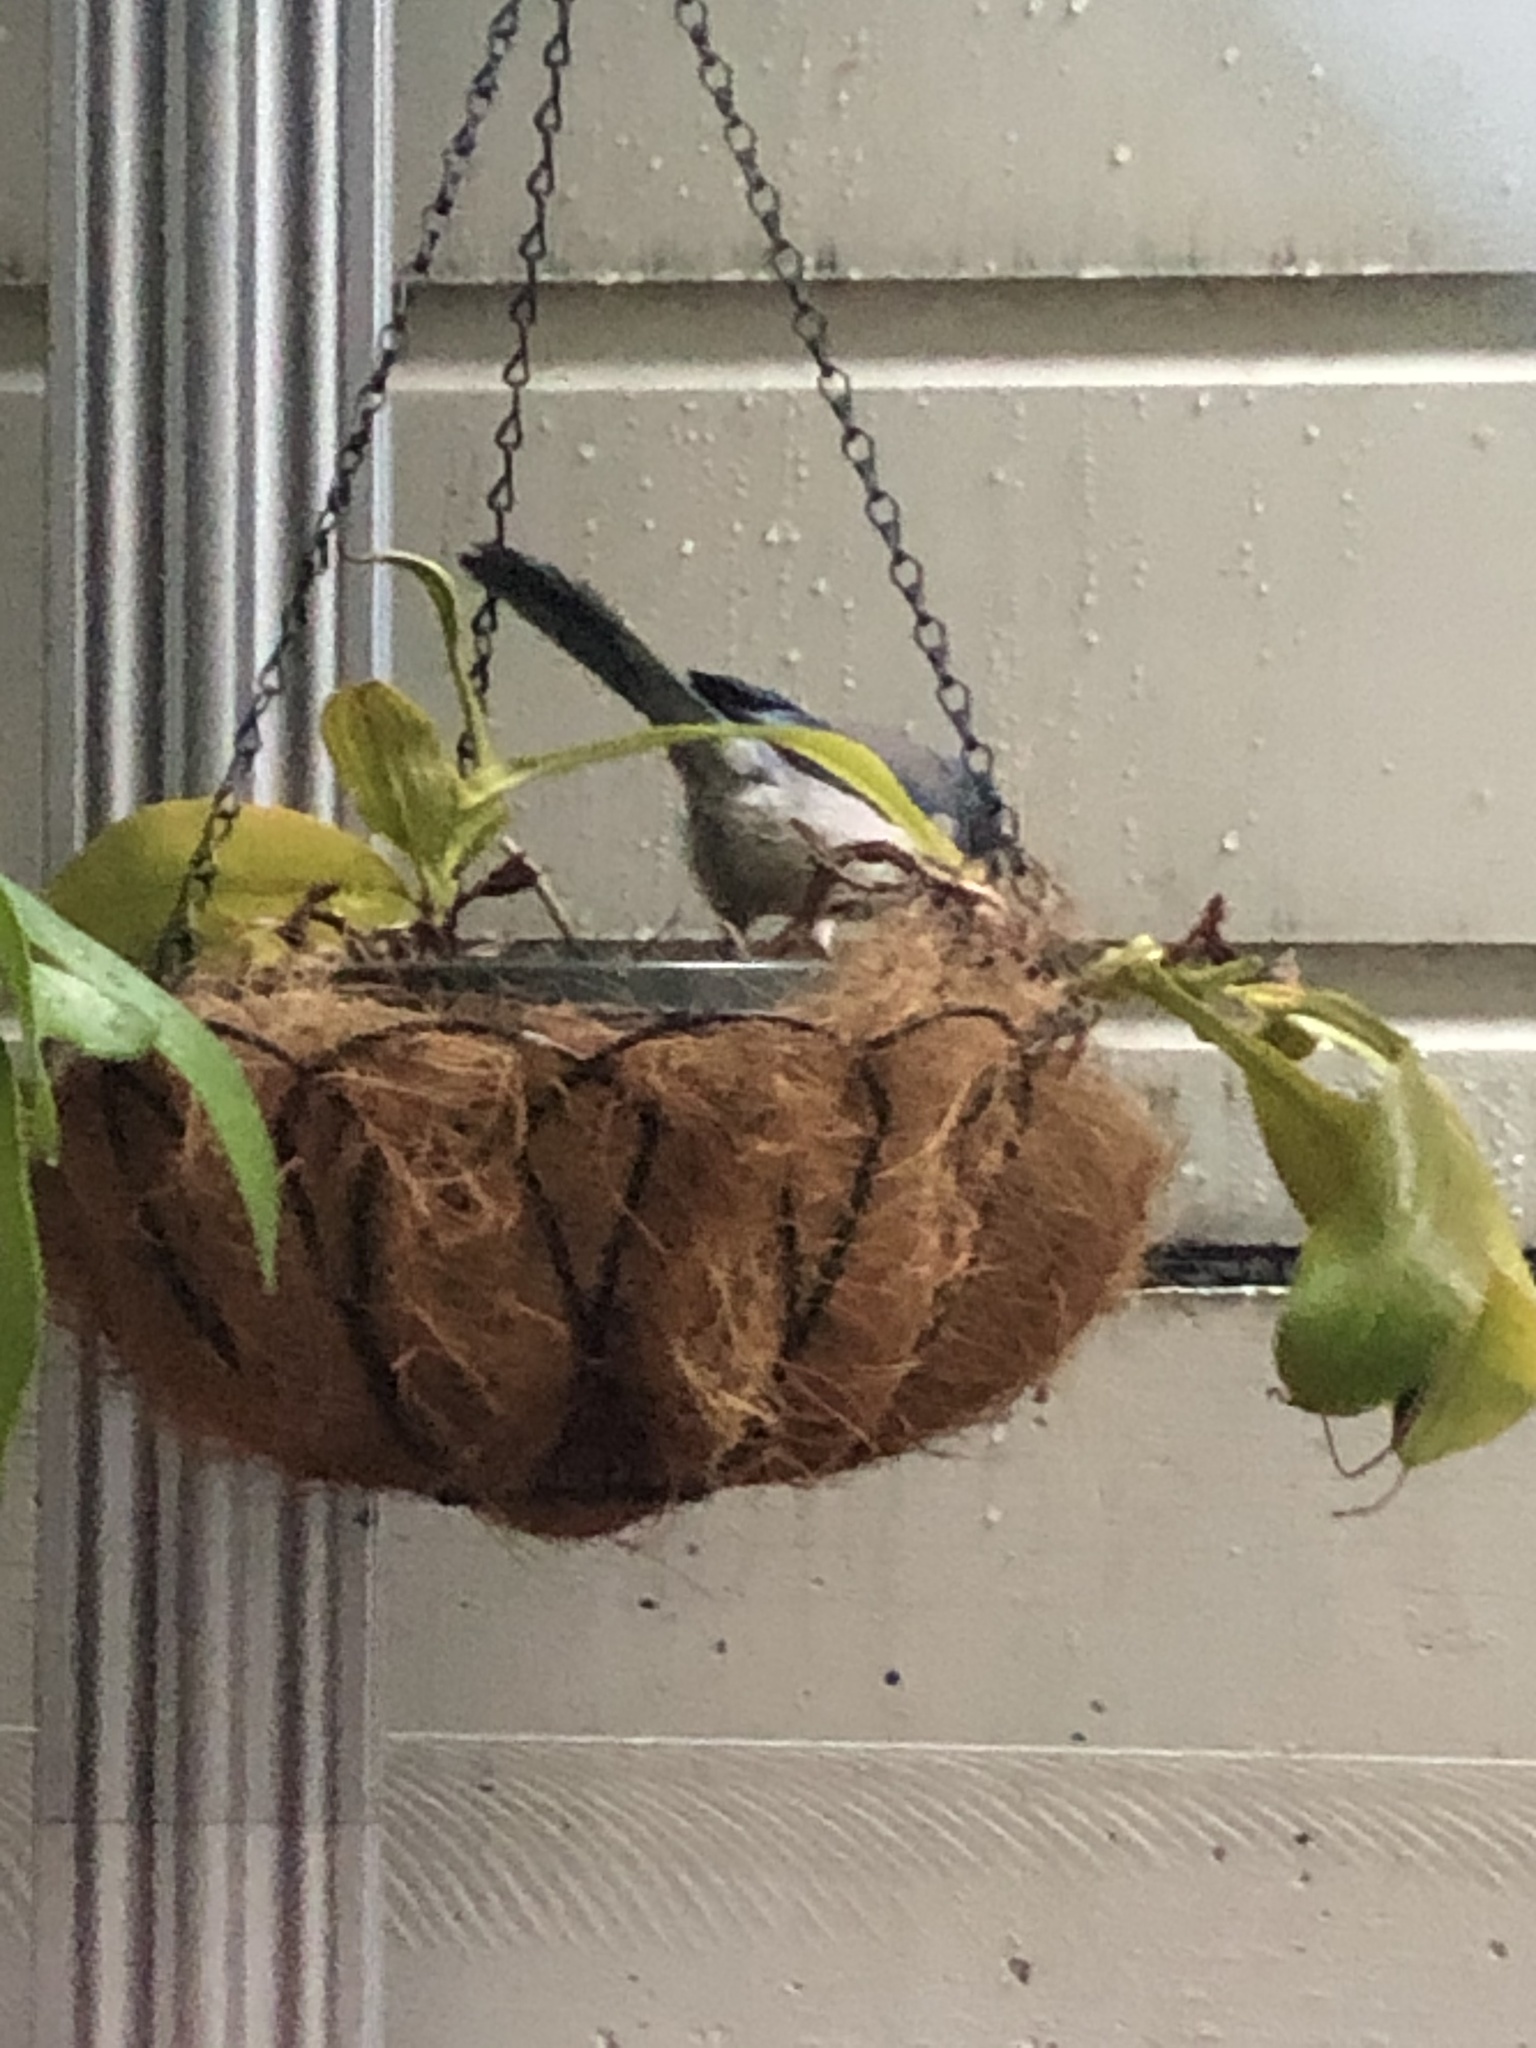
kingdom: Animalia
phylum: Chordata
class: Aves
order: Passeriformes
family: Corvidae
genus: Aphelocoma
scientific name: Aphelocoma californica
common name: California scrub-jay
